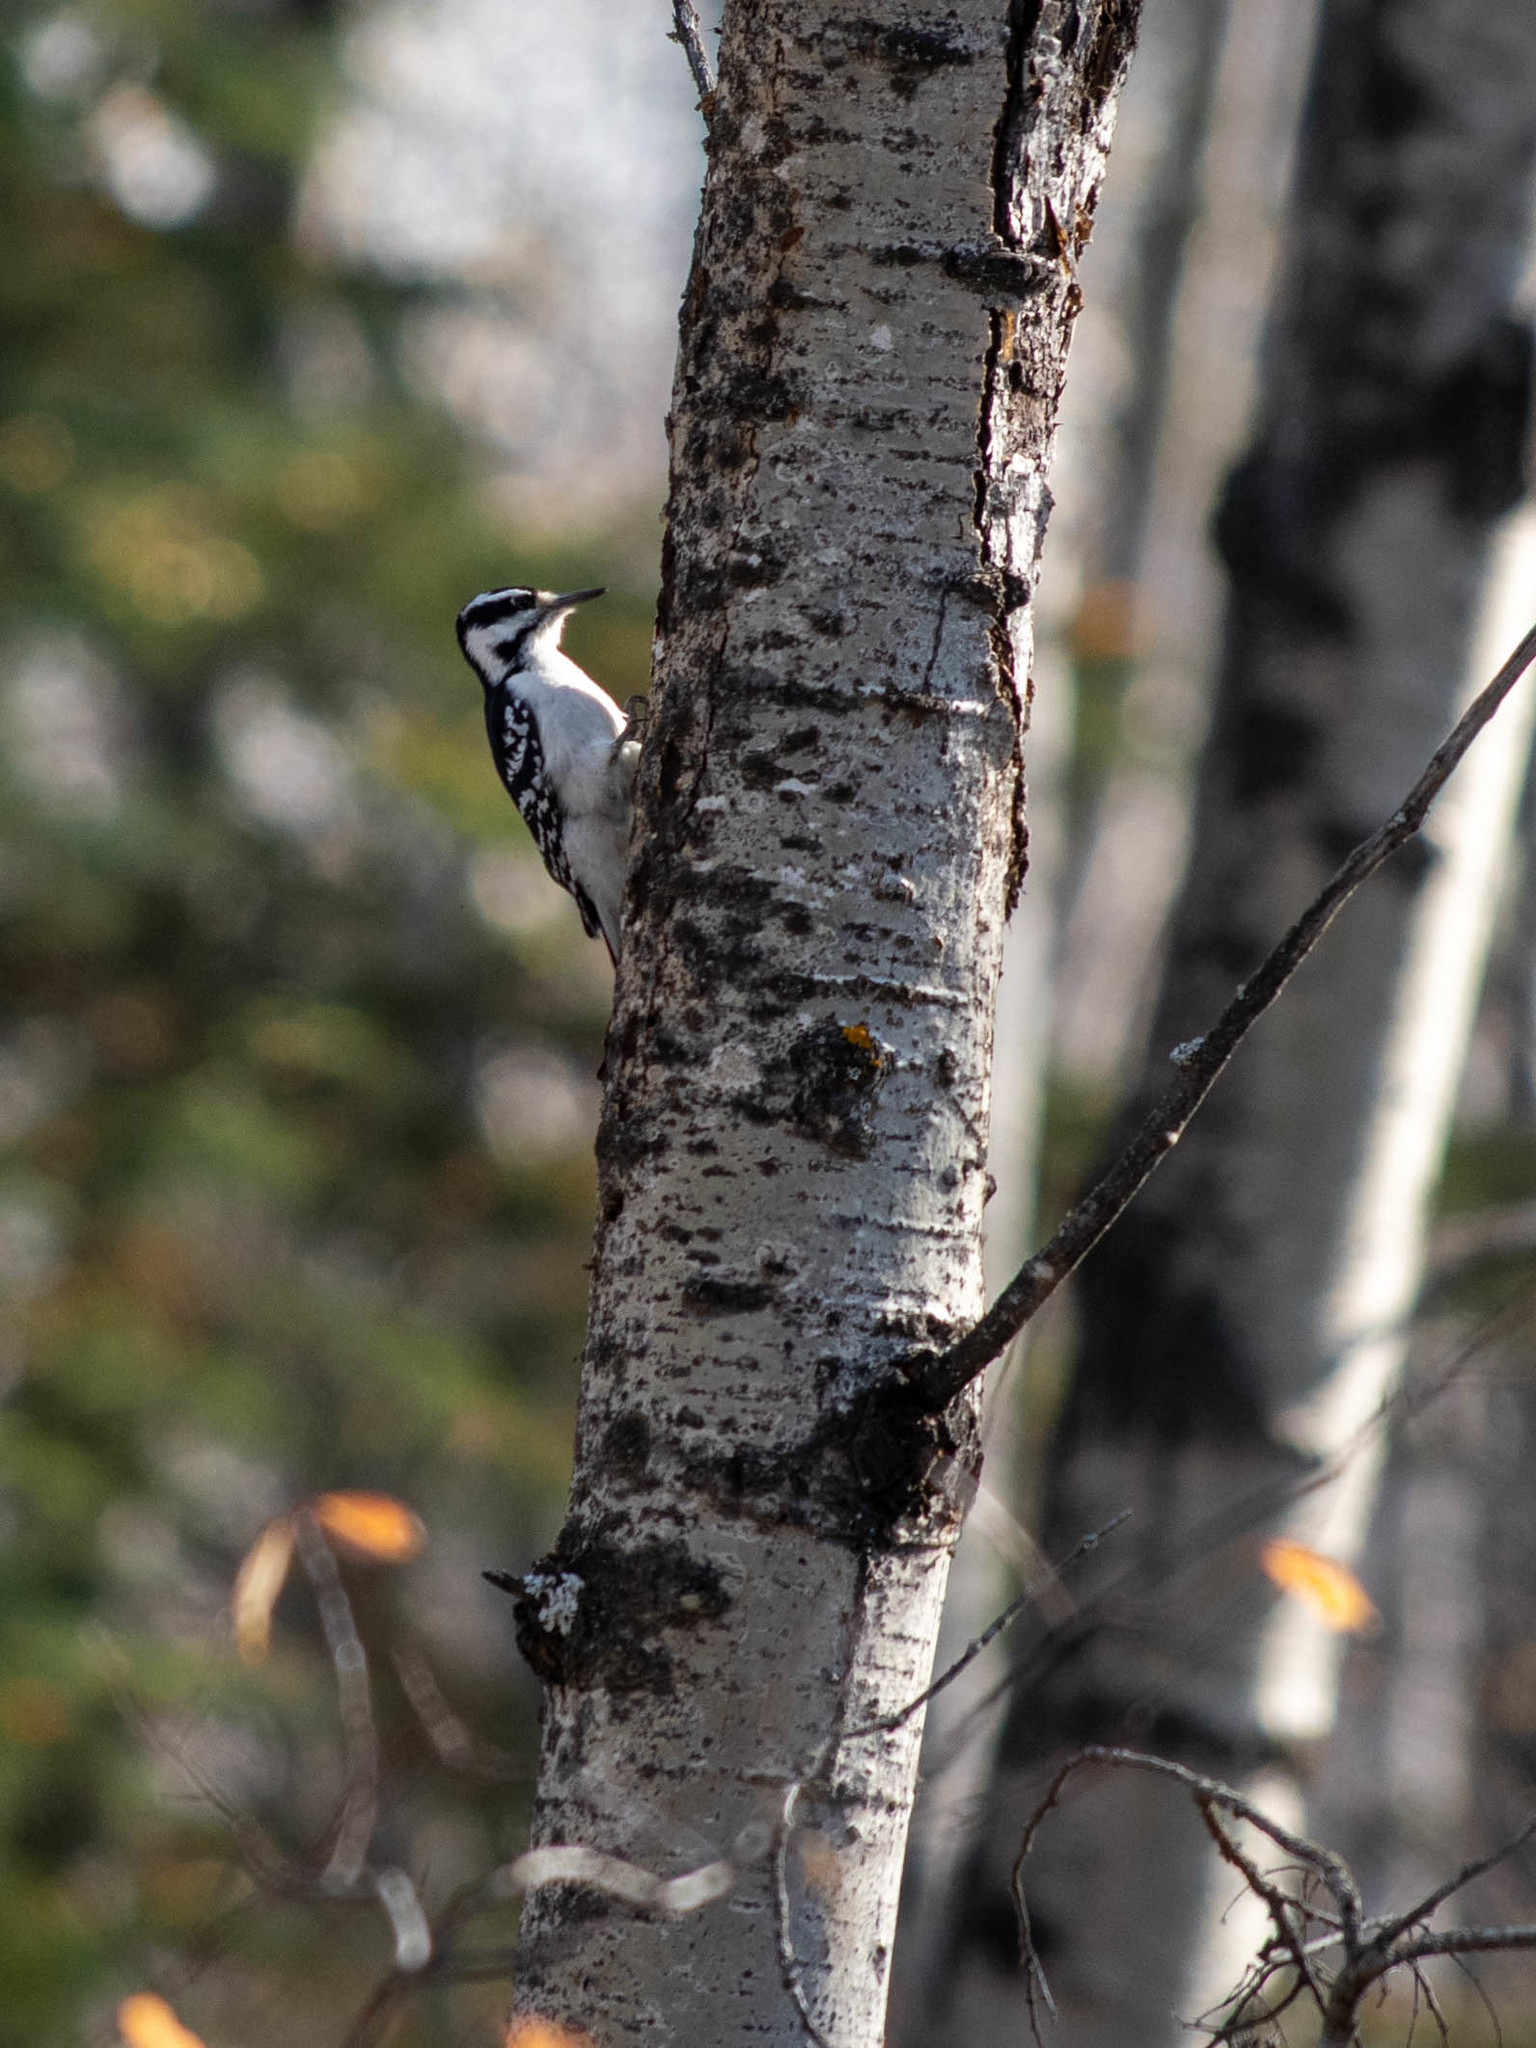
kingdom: Animalia
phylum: Chordata
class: Aves
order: Piciformes
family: Picidae
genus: Leuconotopicus
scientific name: Leuconotopicus villosus
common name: Hairy woodpecker
